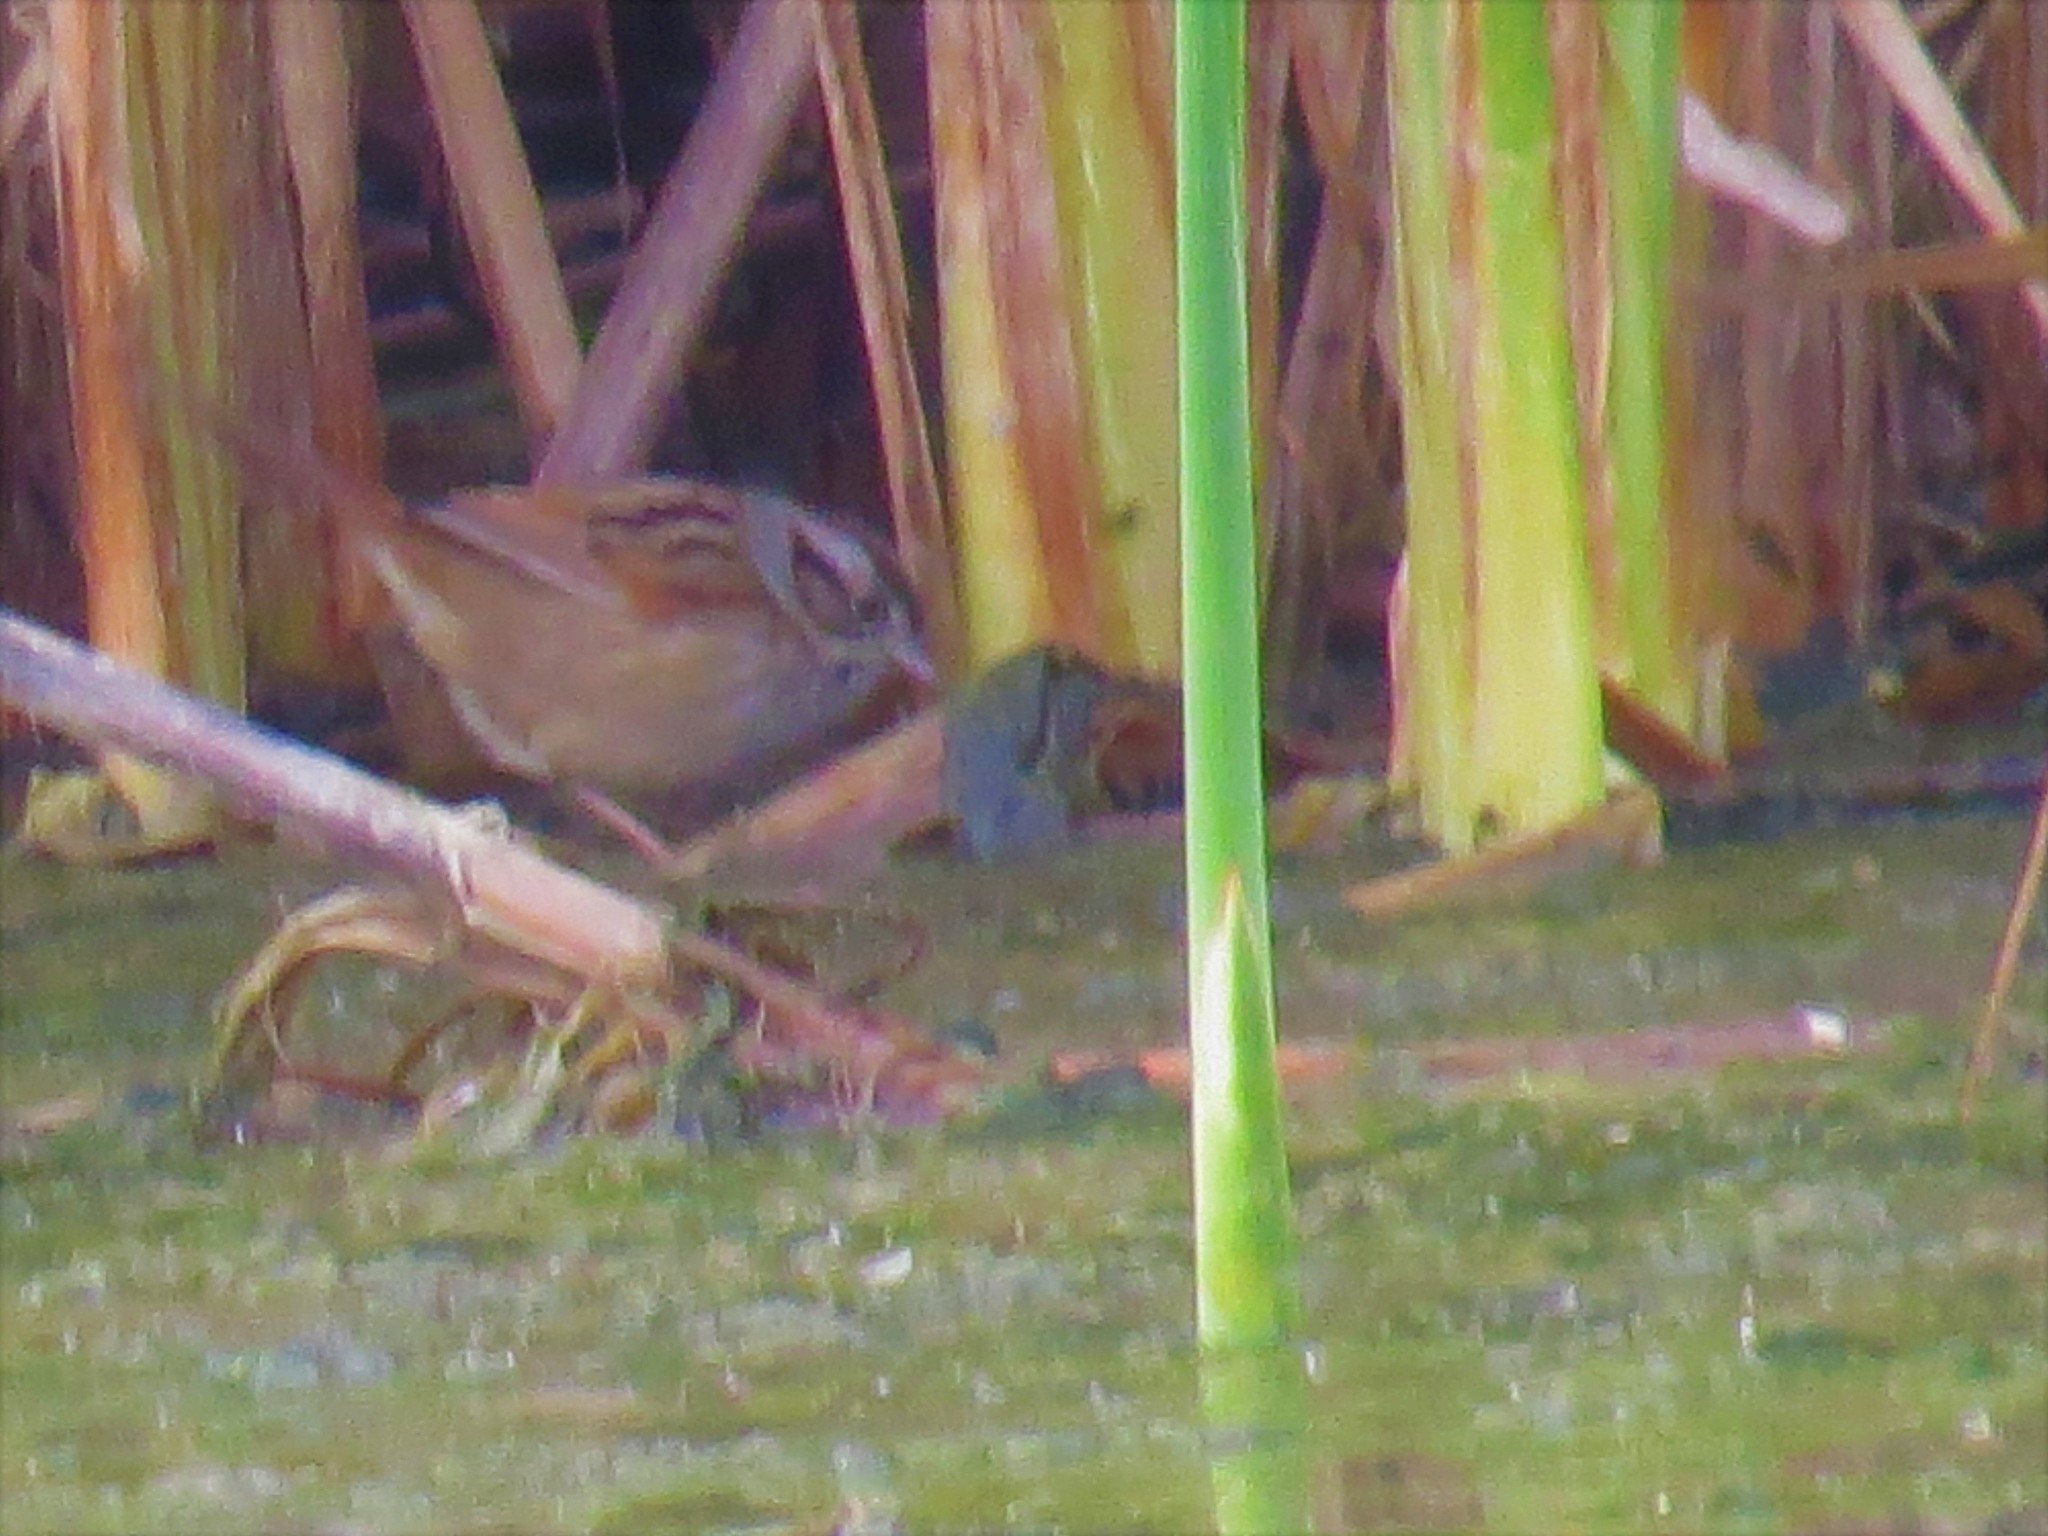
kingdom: Animalia
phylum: Chordata
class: Aves
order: Passeriformes
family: Passerellidae
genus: Melospiza
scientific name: Melospiza georgiana
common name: Swamp sparrow
